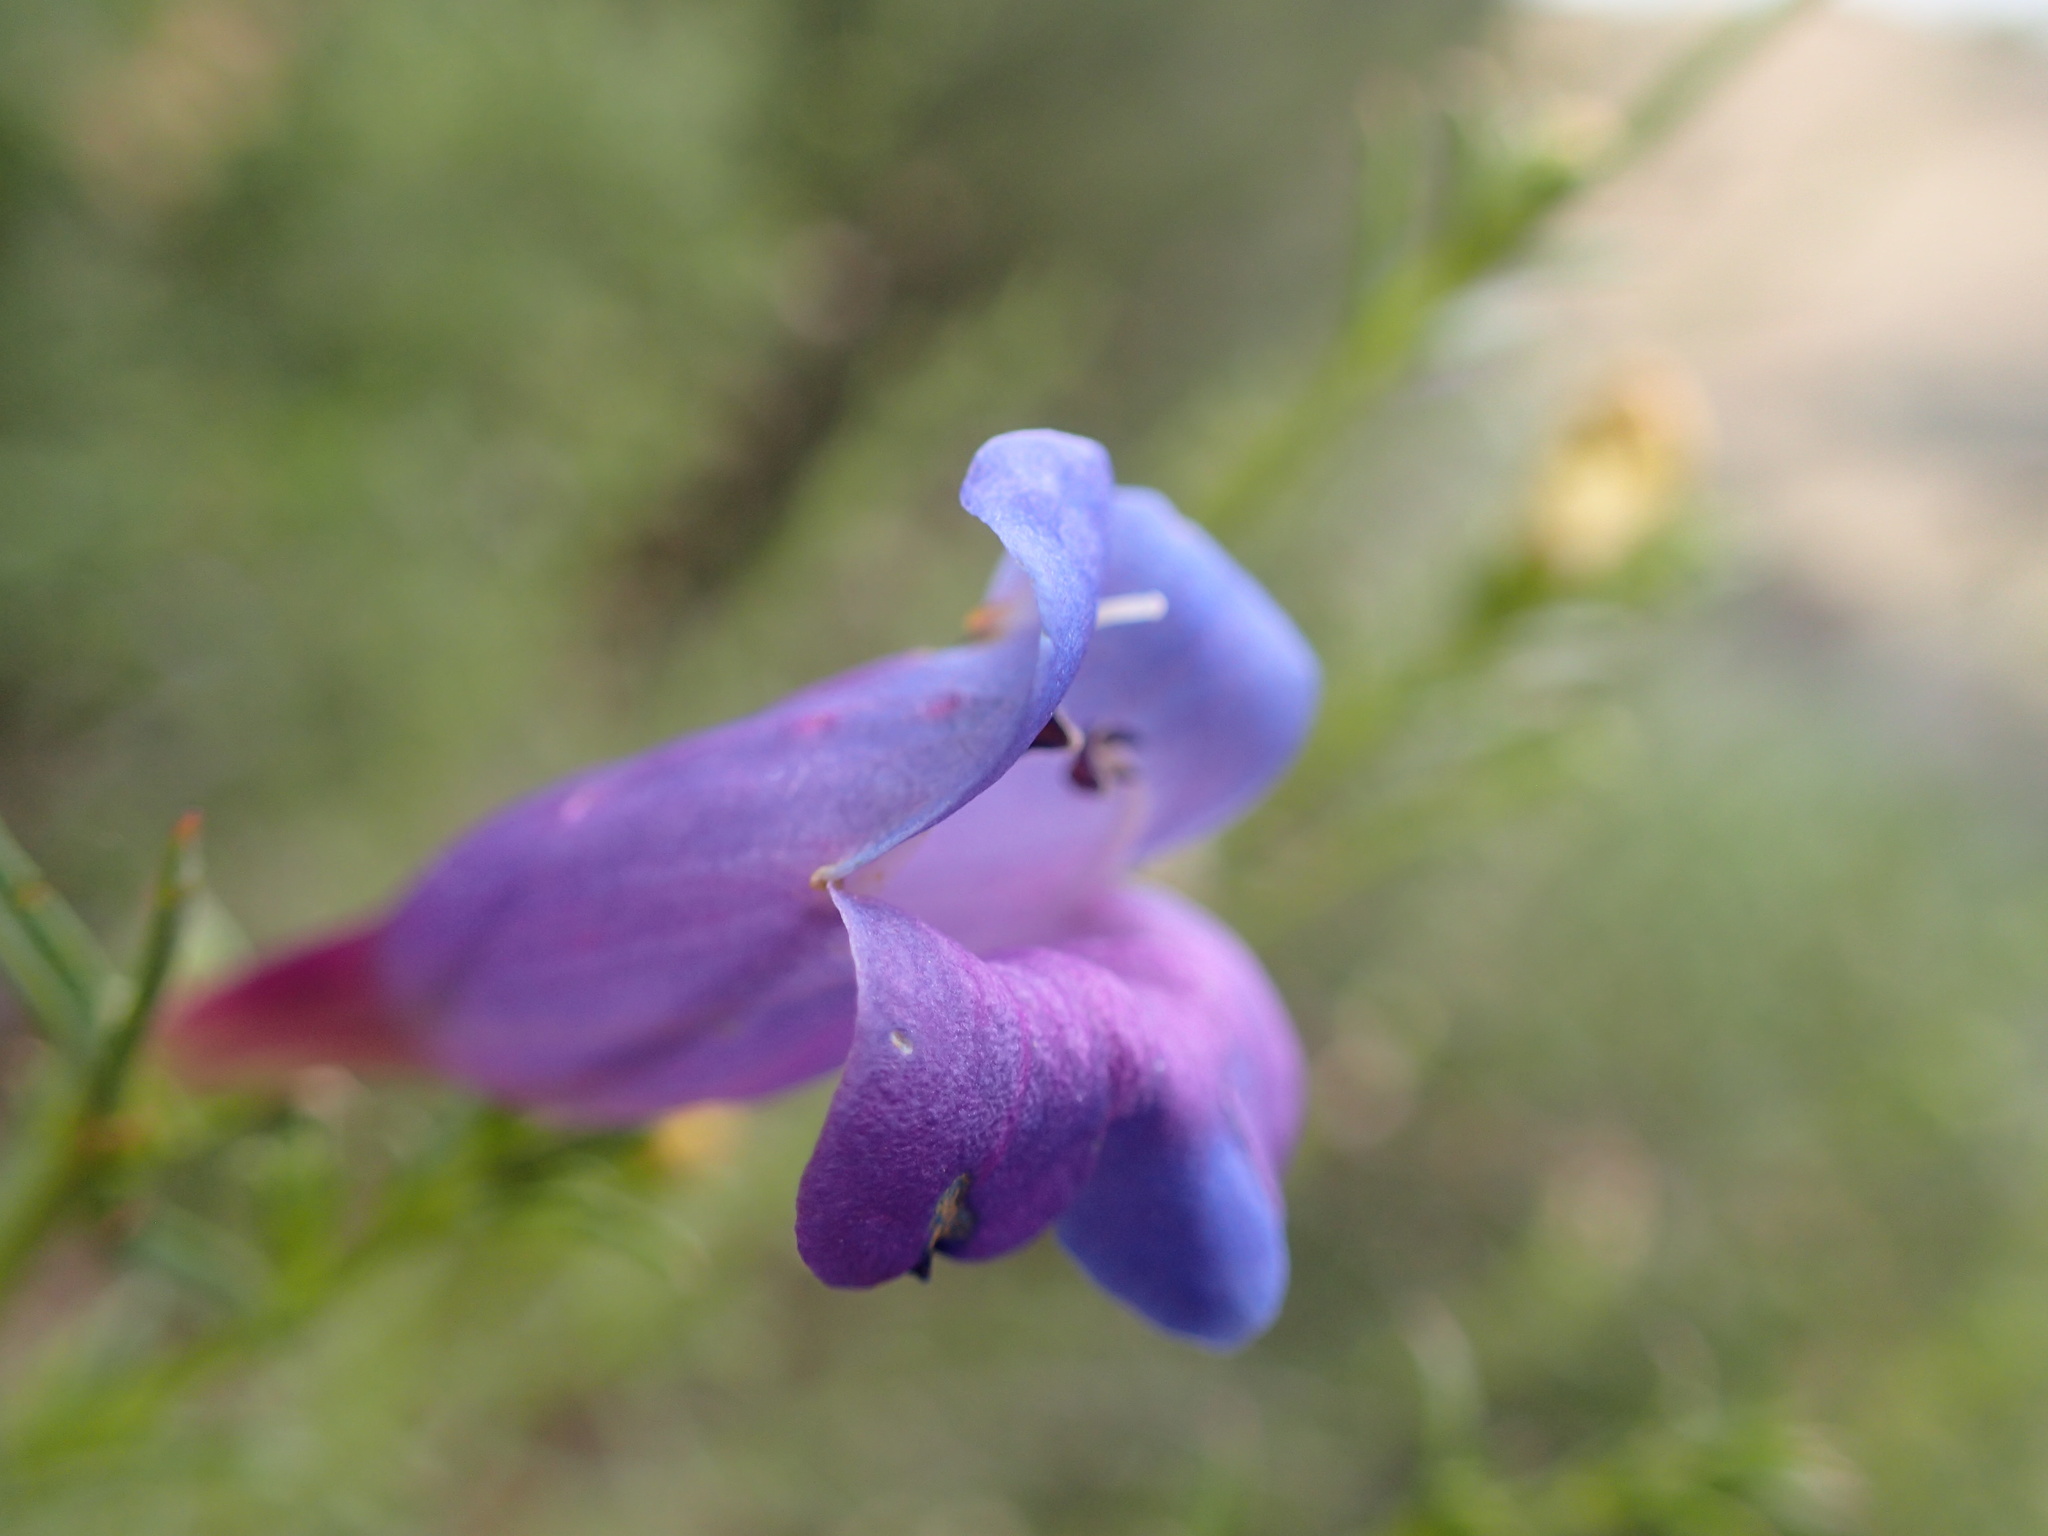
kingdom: Plantae
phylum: Tracheophyta
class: Magnoliopsida
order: Lamiales
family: Plantaginaceae
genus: Penstemon
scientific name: Penstemon heterophyllus
